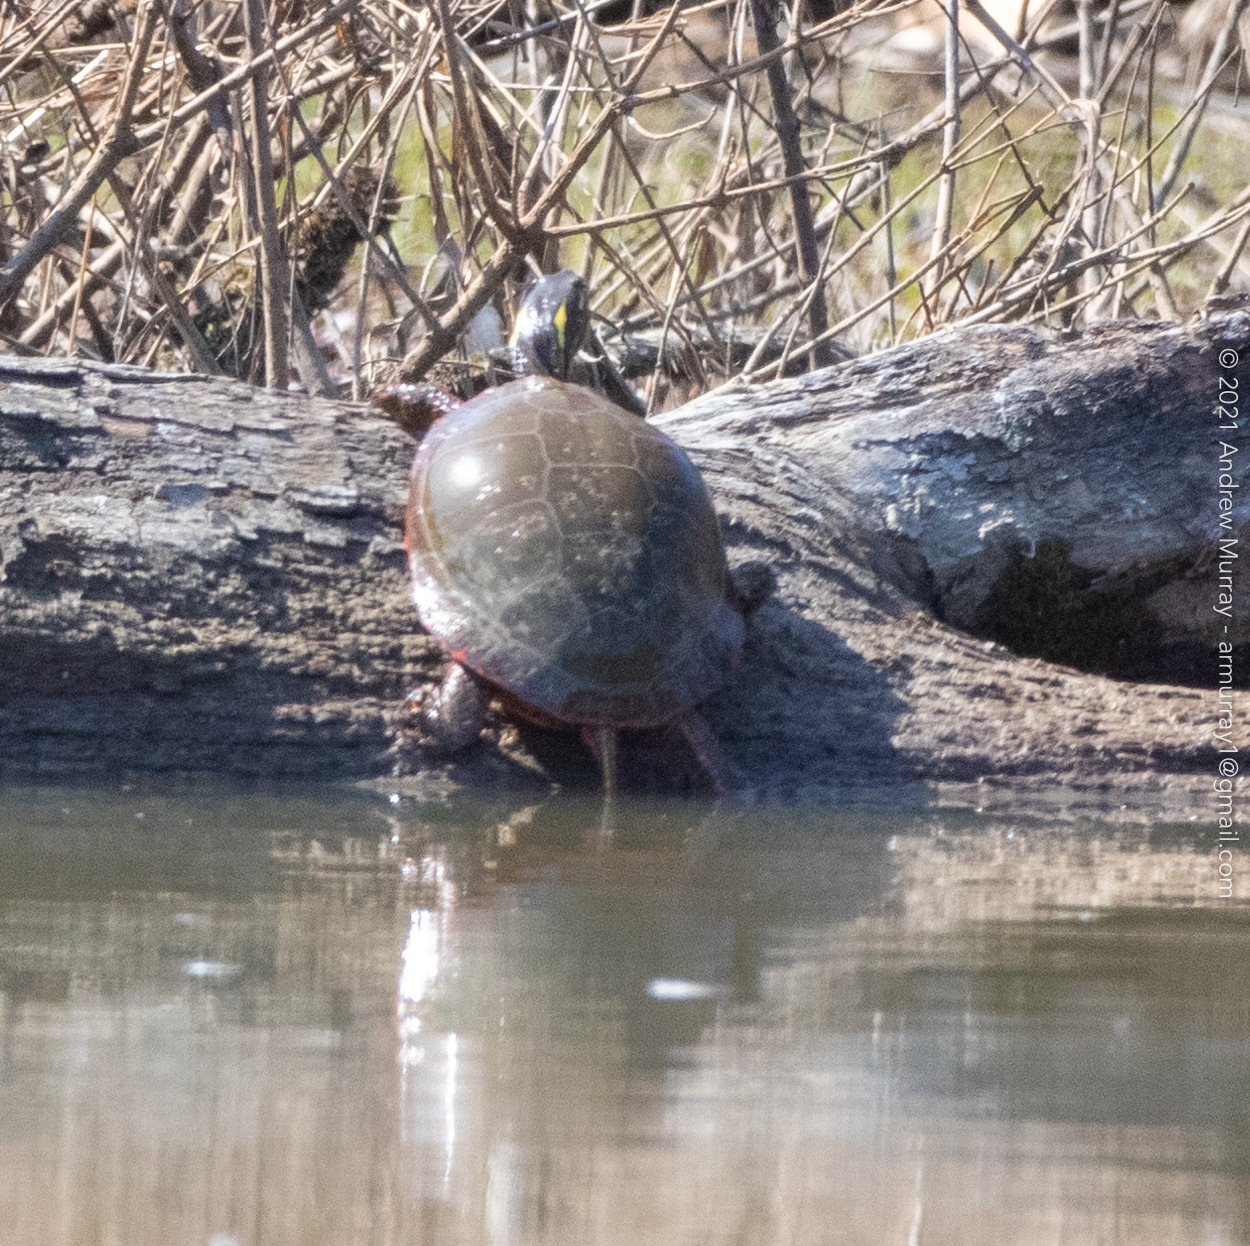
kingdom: Animalia
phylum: Chordata
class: Testudines
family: Emydidae
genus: Chrysemys
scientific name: Chrysemys picta
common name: Painted turtle
